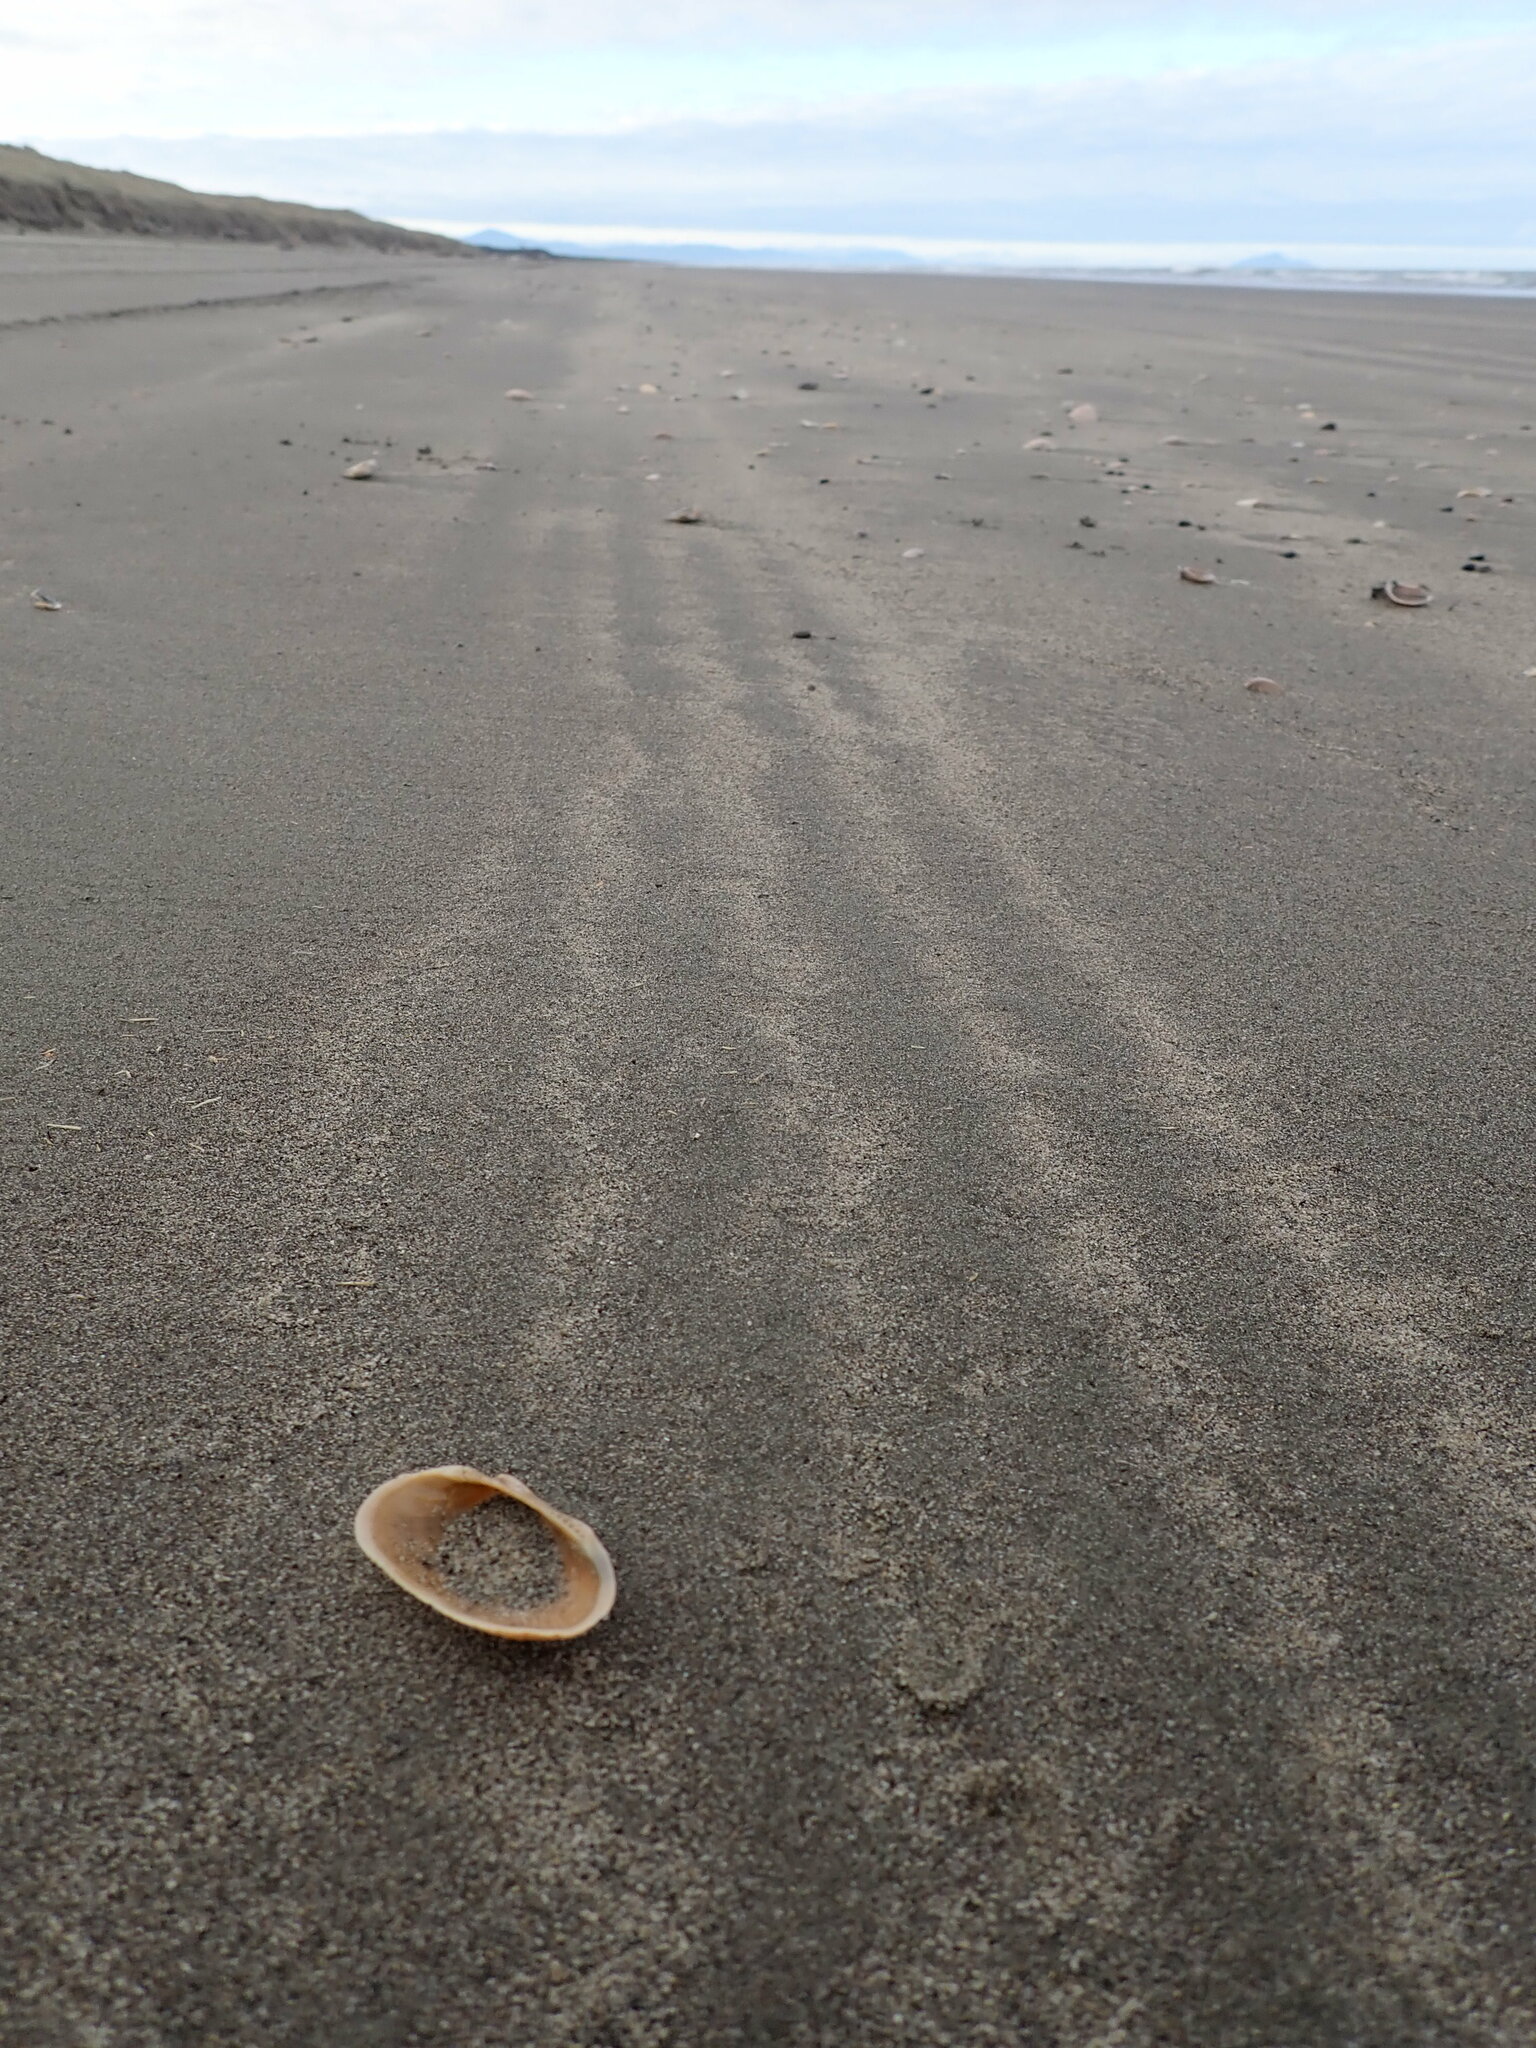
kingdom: Animalia
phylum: Mollusca
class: Bivalvia
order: Arcida
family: Arcidae
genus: Barbatia
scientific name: Barbatia novaezealandiae
